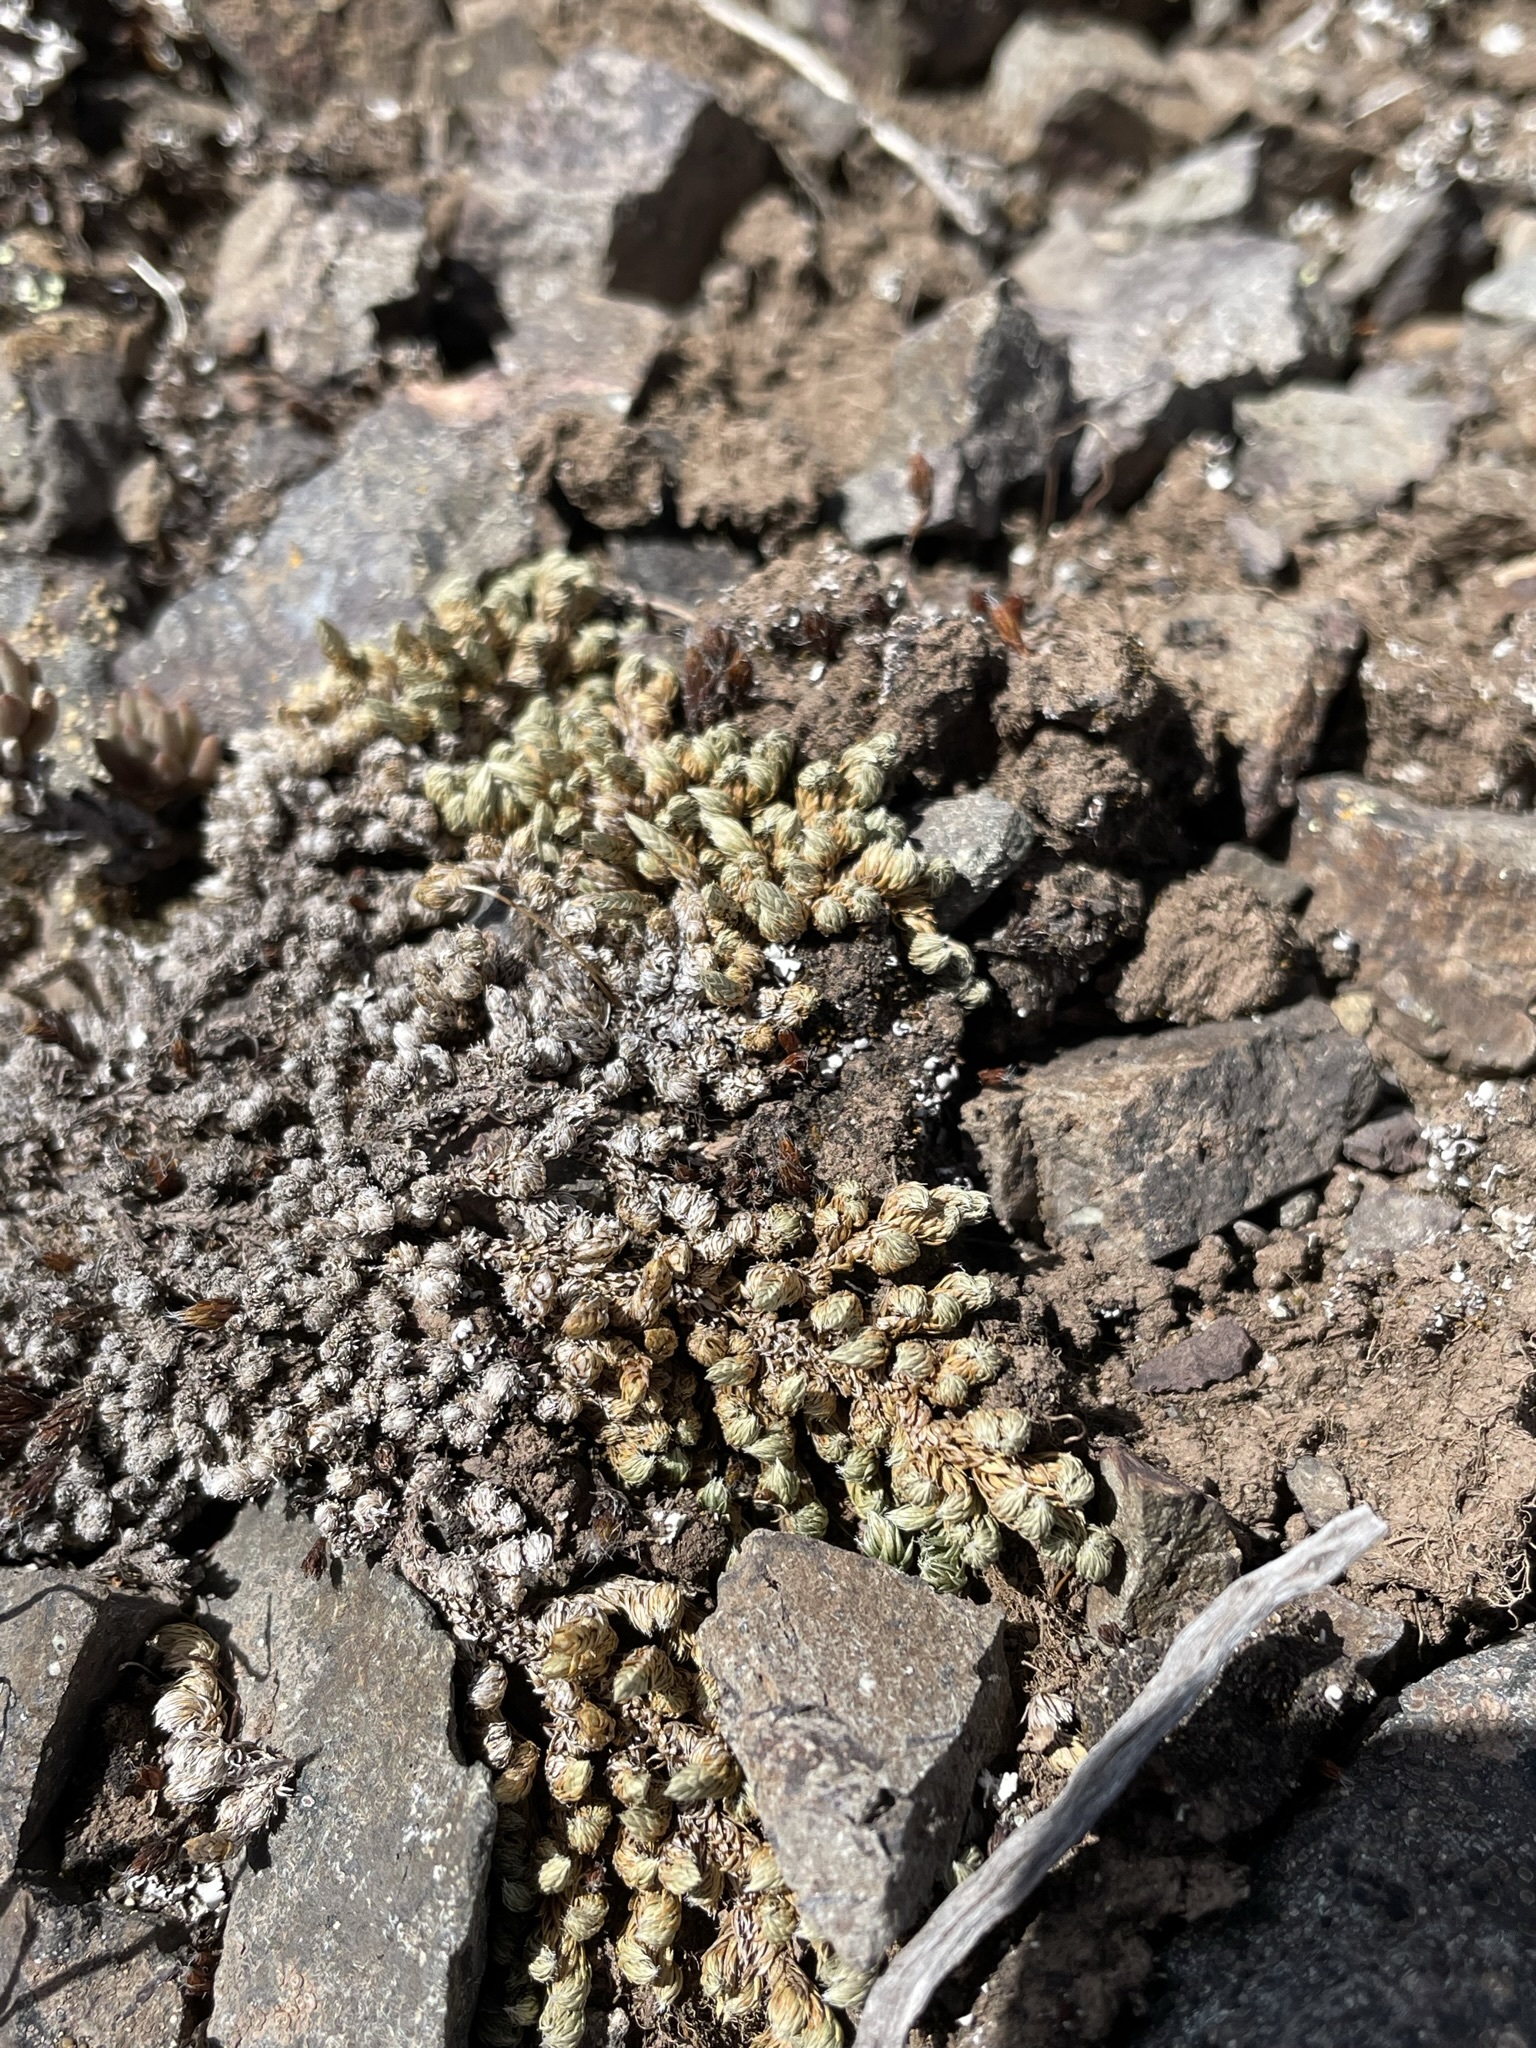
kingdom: Plantae
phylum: Tracheophyta
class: Lycopodiopsida
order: Selaginellales
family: Selaginellaceae
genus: Selaginella
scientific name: Selaginella densa
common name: Mountain spike-moss
